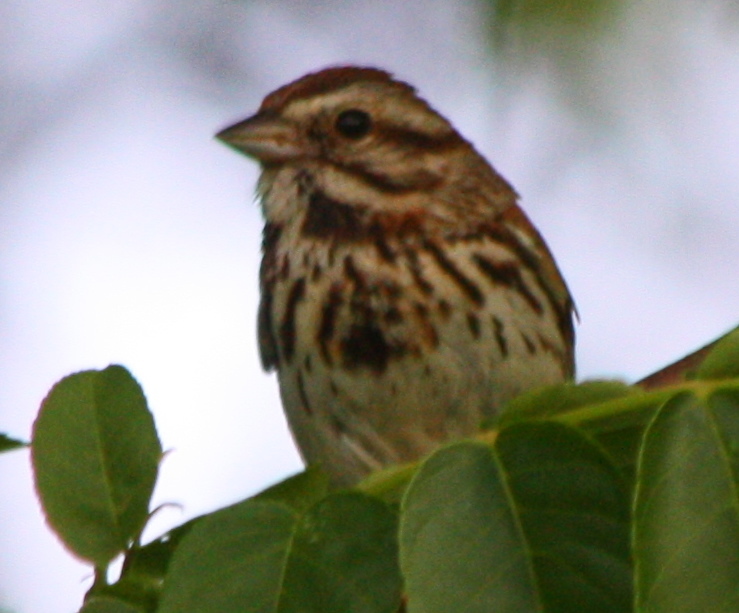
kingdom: Animalia
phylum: Chordata
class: Aves
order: Passeriformes
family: Passerellidae
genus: Melospiza
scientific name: Melospiza melodia
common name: Song sparrow
